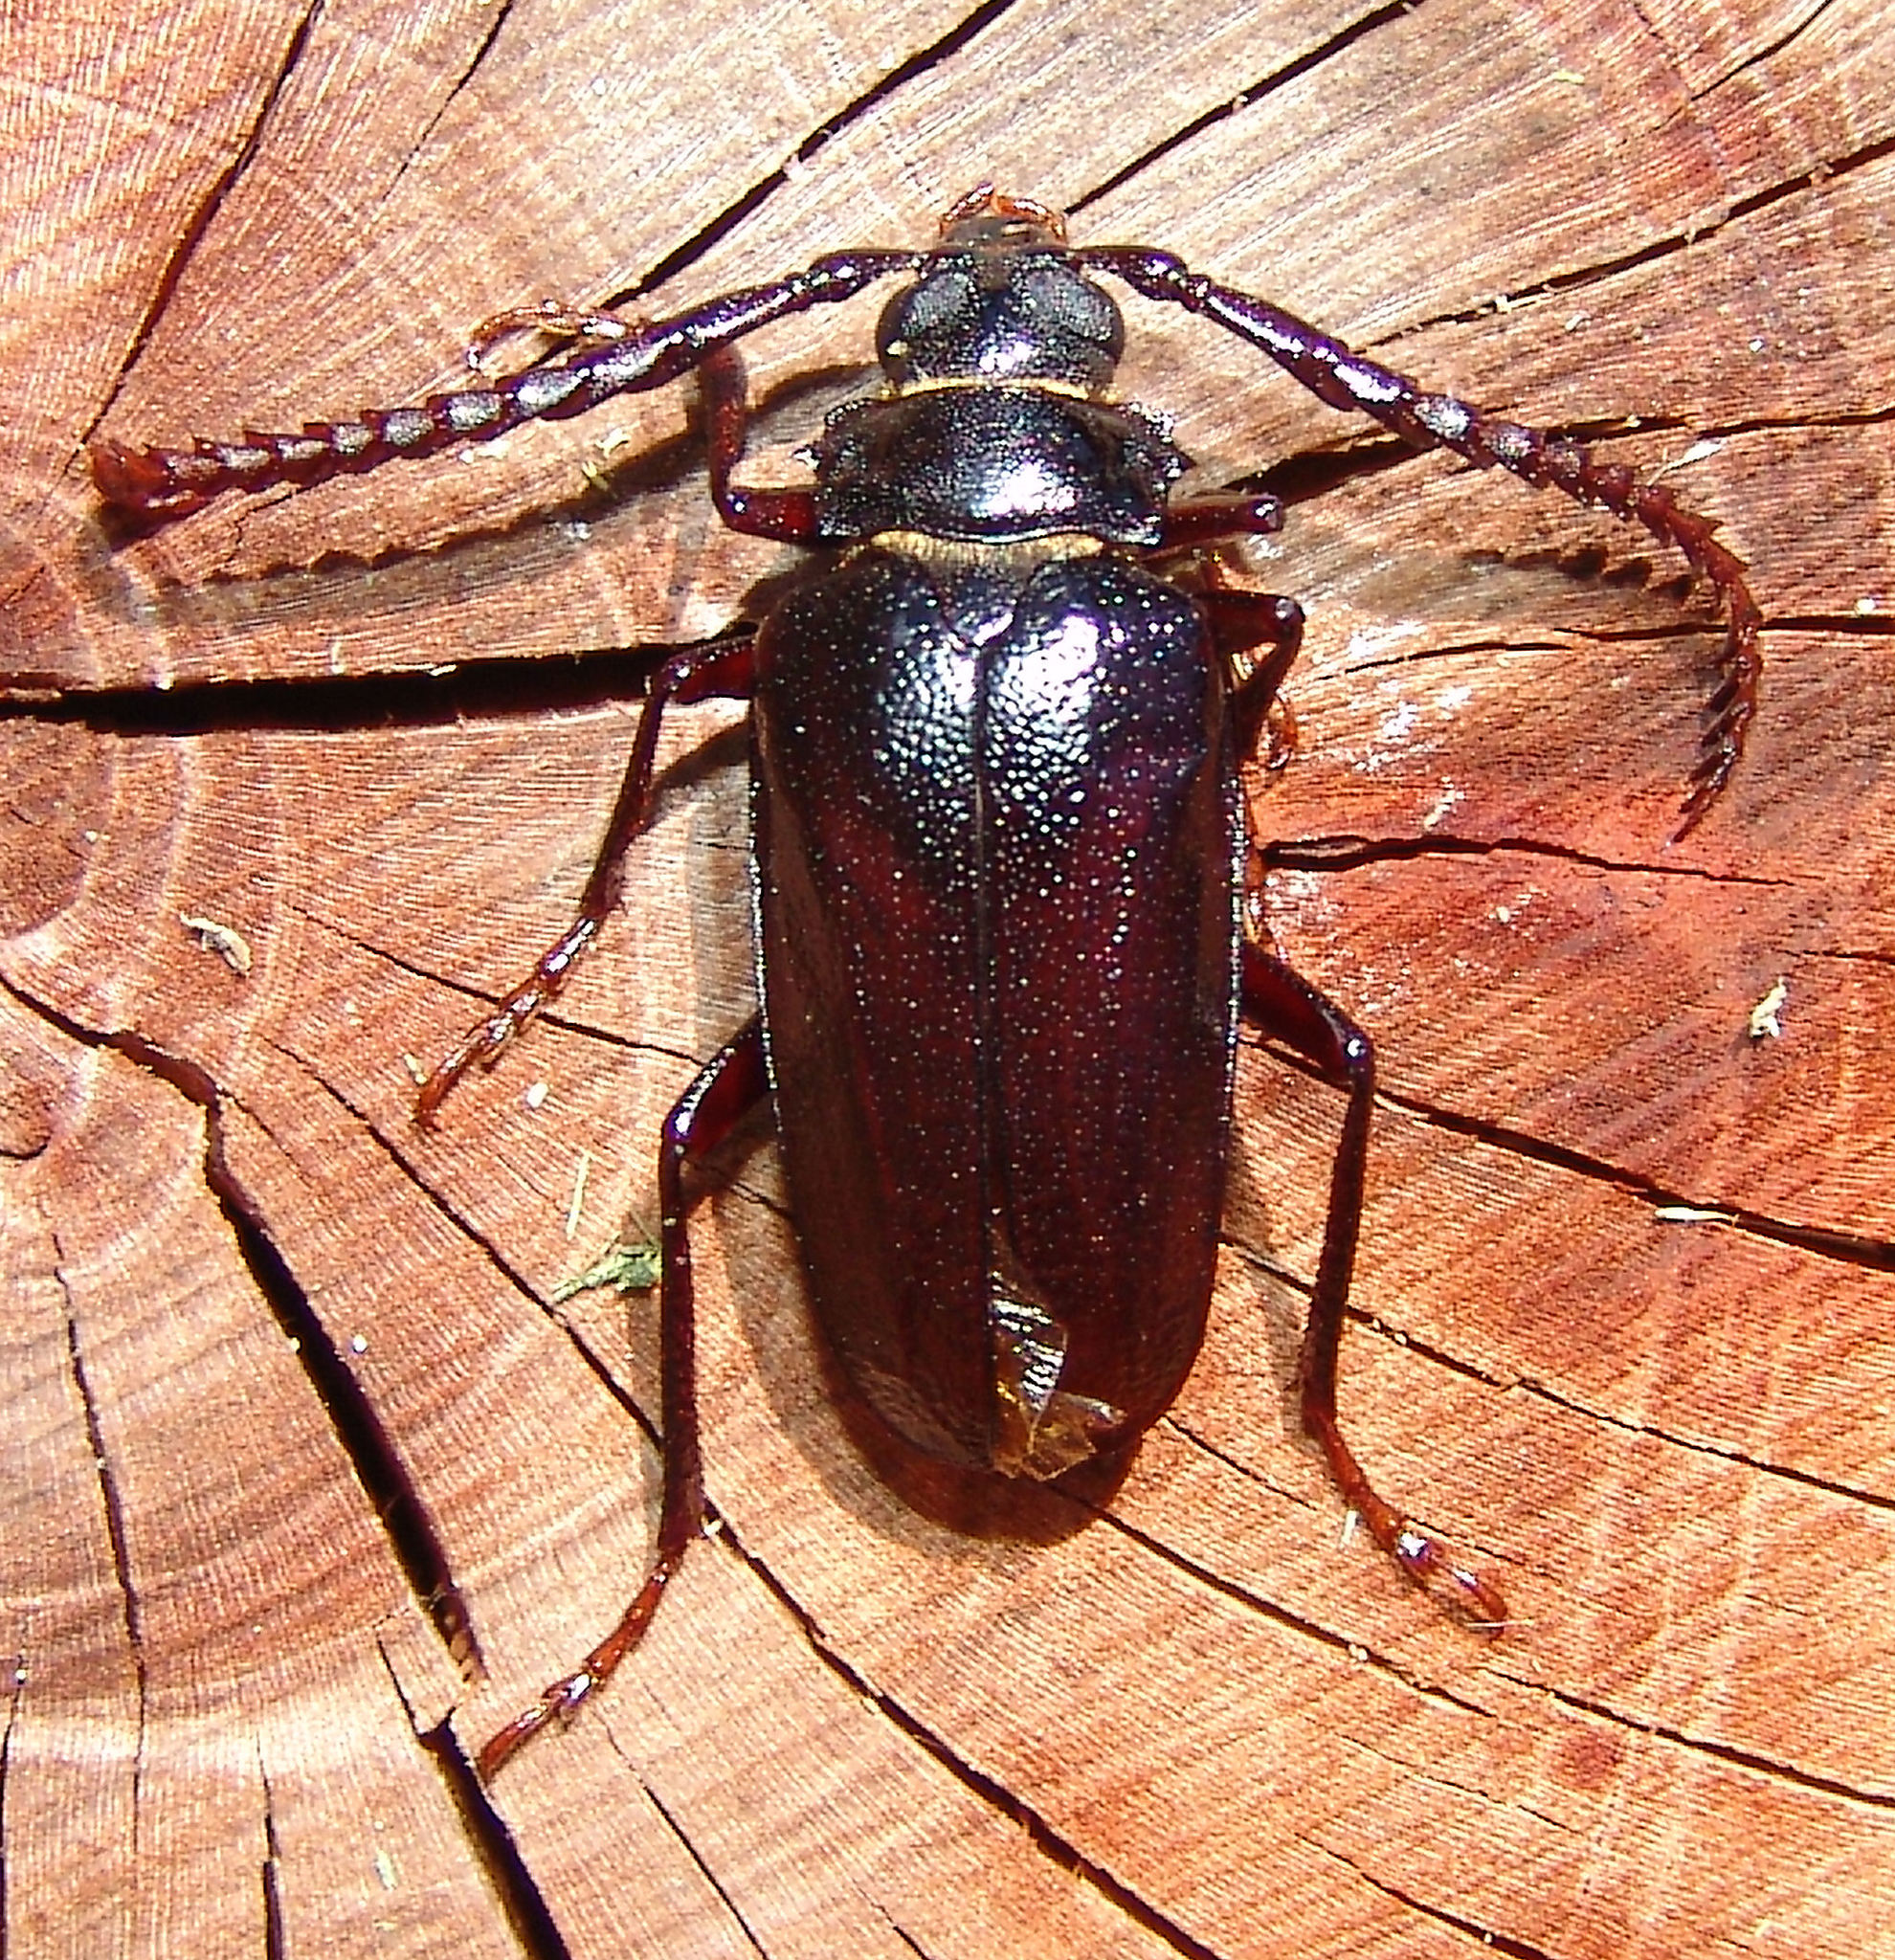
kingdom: Animalia
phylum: Arthropoda
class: Insecta
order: Coleoptera
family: Cerambycidae
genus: Prionus
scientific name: Prionus imbricornis
